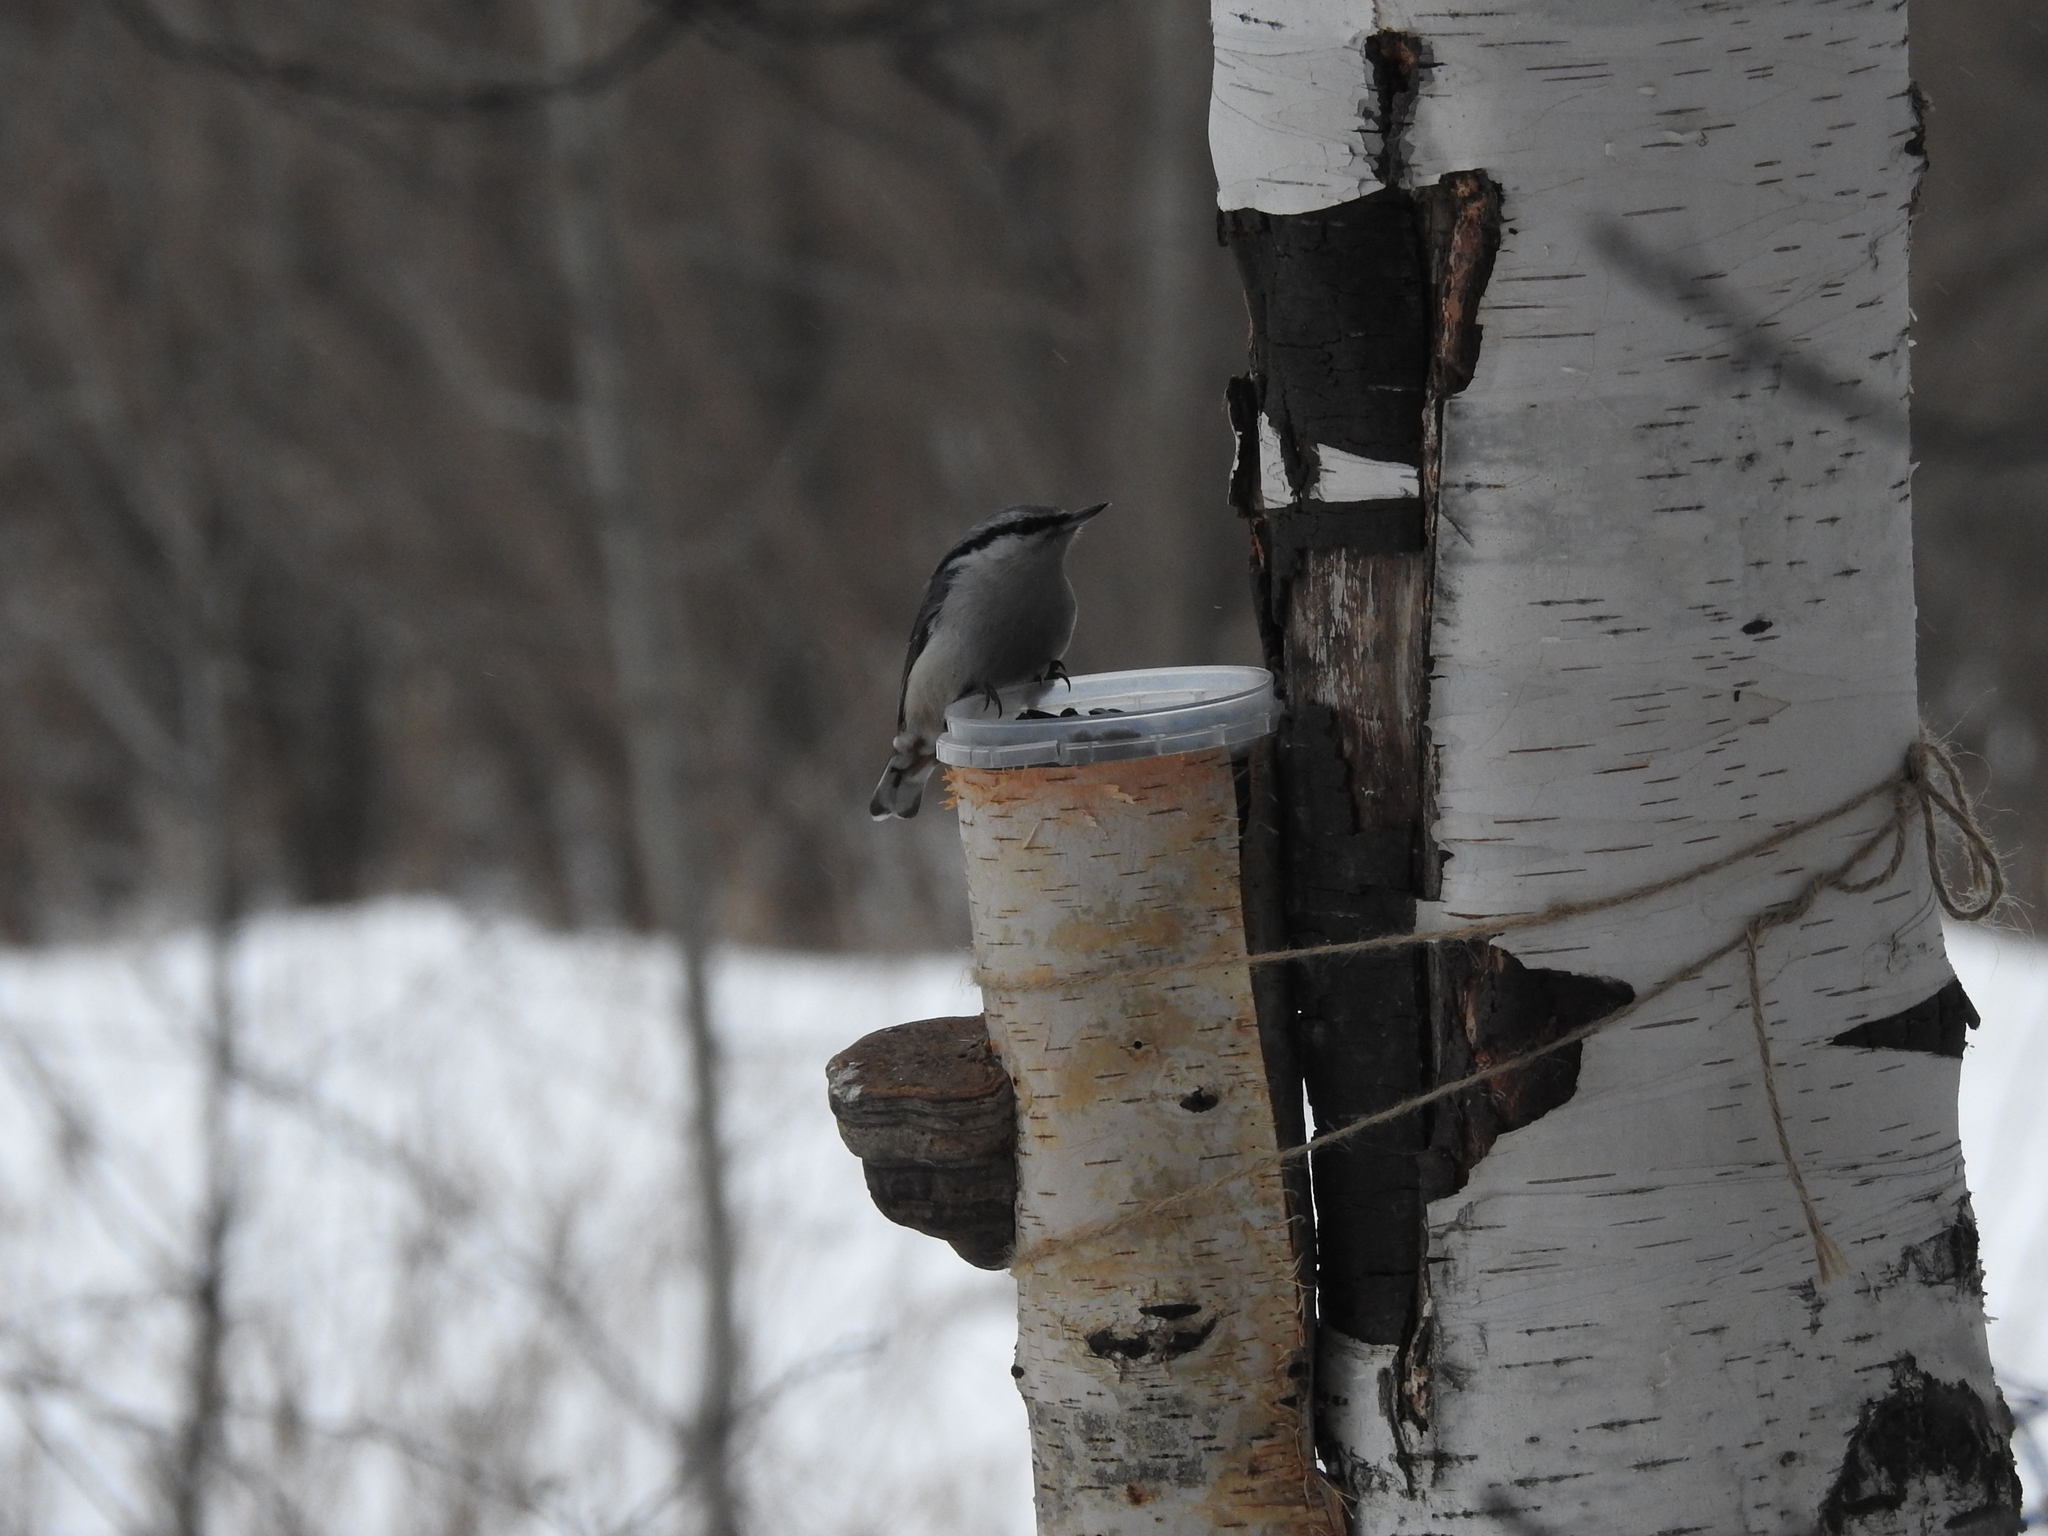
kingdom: Animalia
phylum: Chordata
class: Aves
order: Passeriformes
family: Sittidae
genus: Sitta
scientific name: Sitta europaea
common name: Eurasian nuthatch
